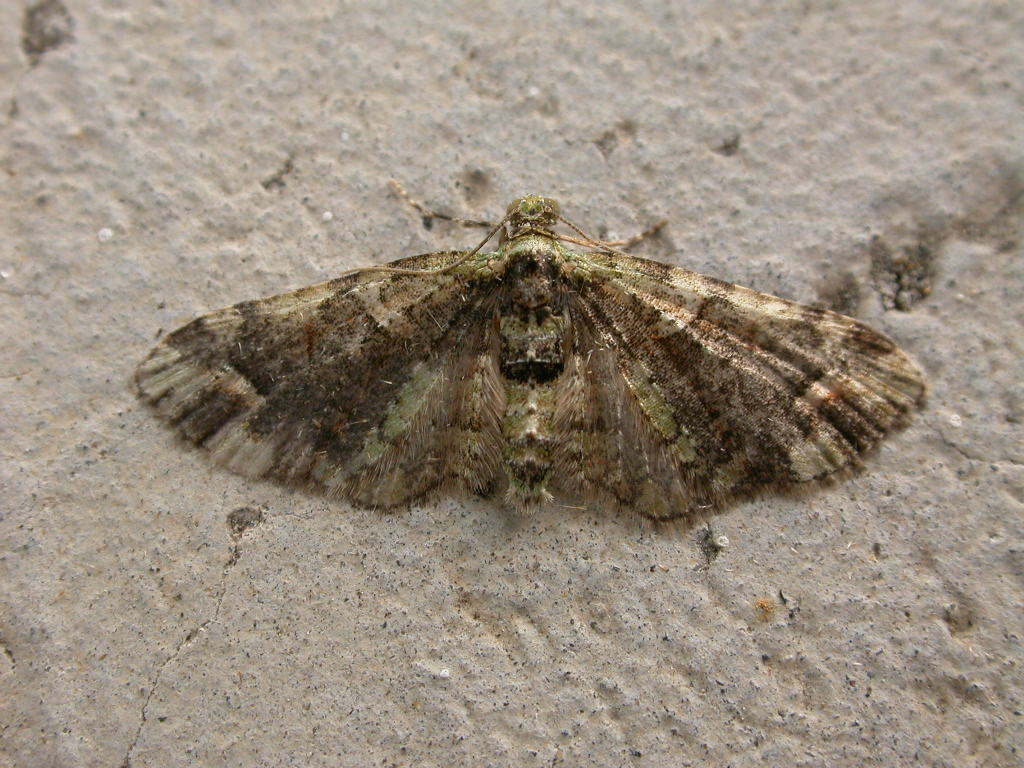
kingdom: Animalia
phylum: Arthropoda
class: Insecta
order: Lepidoptera
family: Geometridae
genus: Idaea
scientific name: Idaea mutanda
